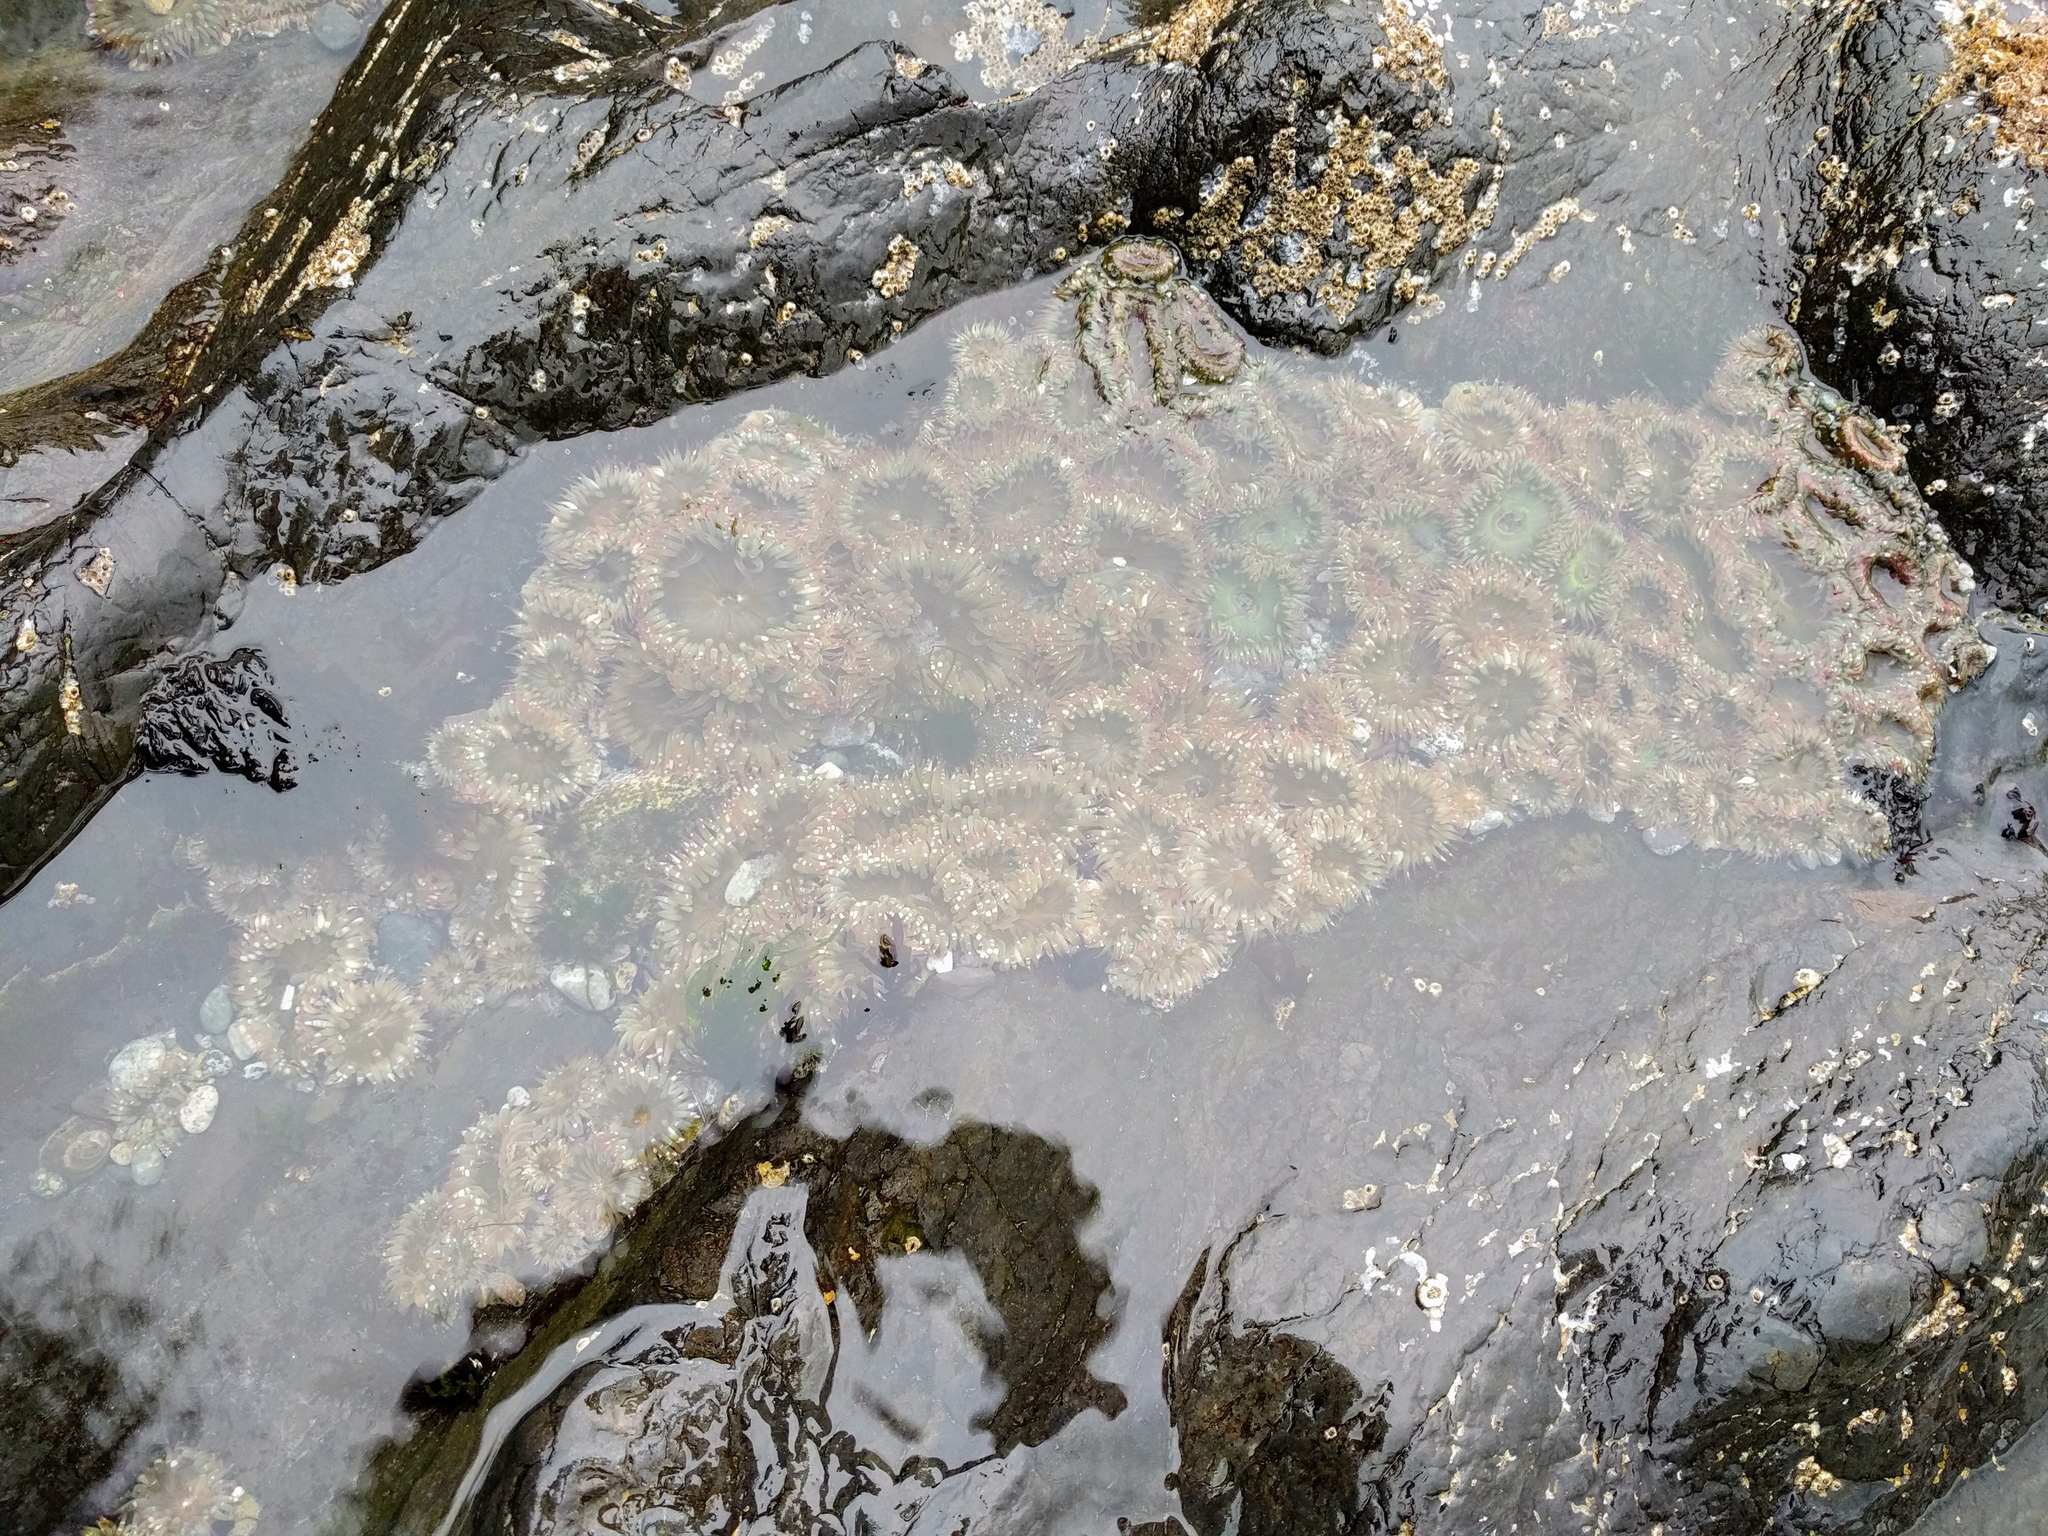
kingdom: Animalia
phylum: Cnidaria
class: Anthozoa
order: Actiniaria
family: Actiniidae
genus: Anthopleura
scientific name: Anthopleura elegantissima
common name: Clonal anemone
